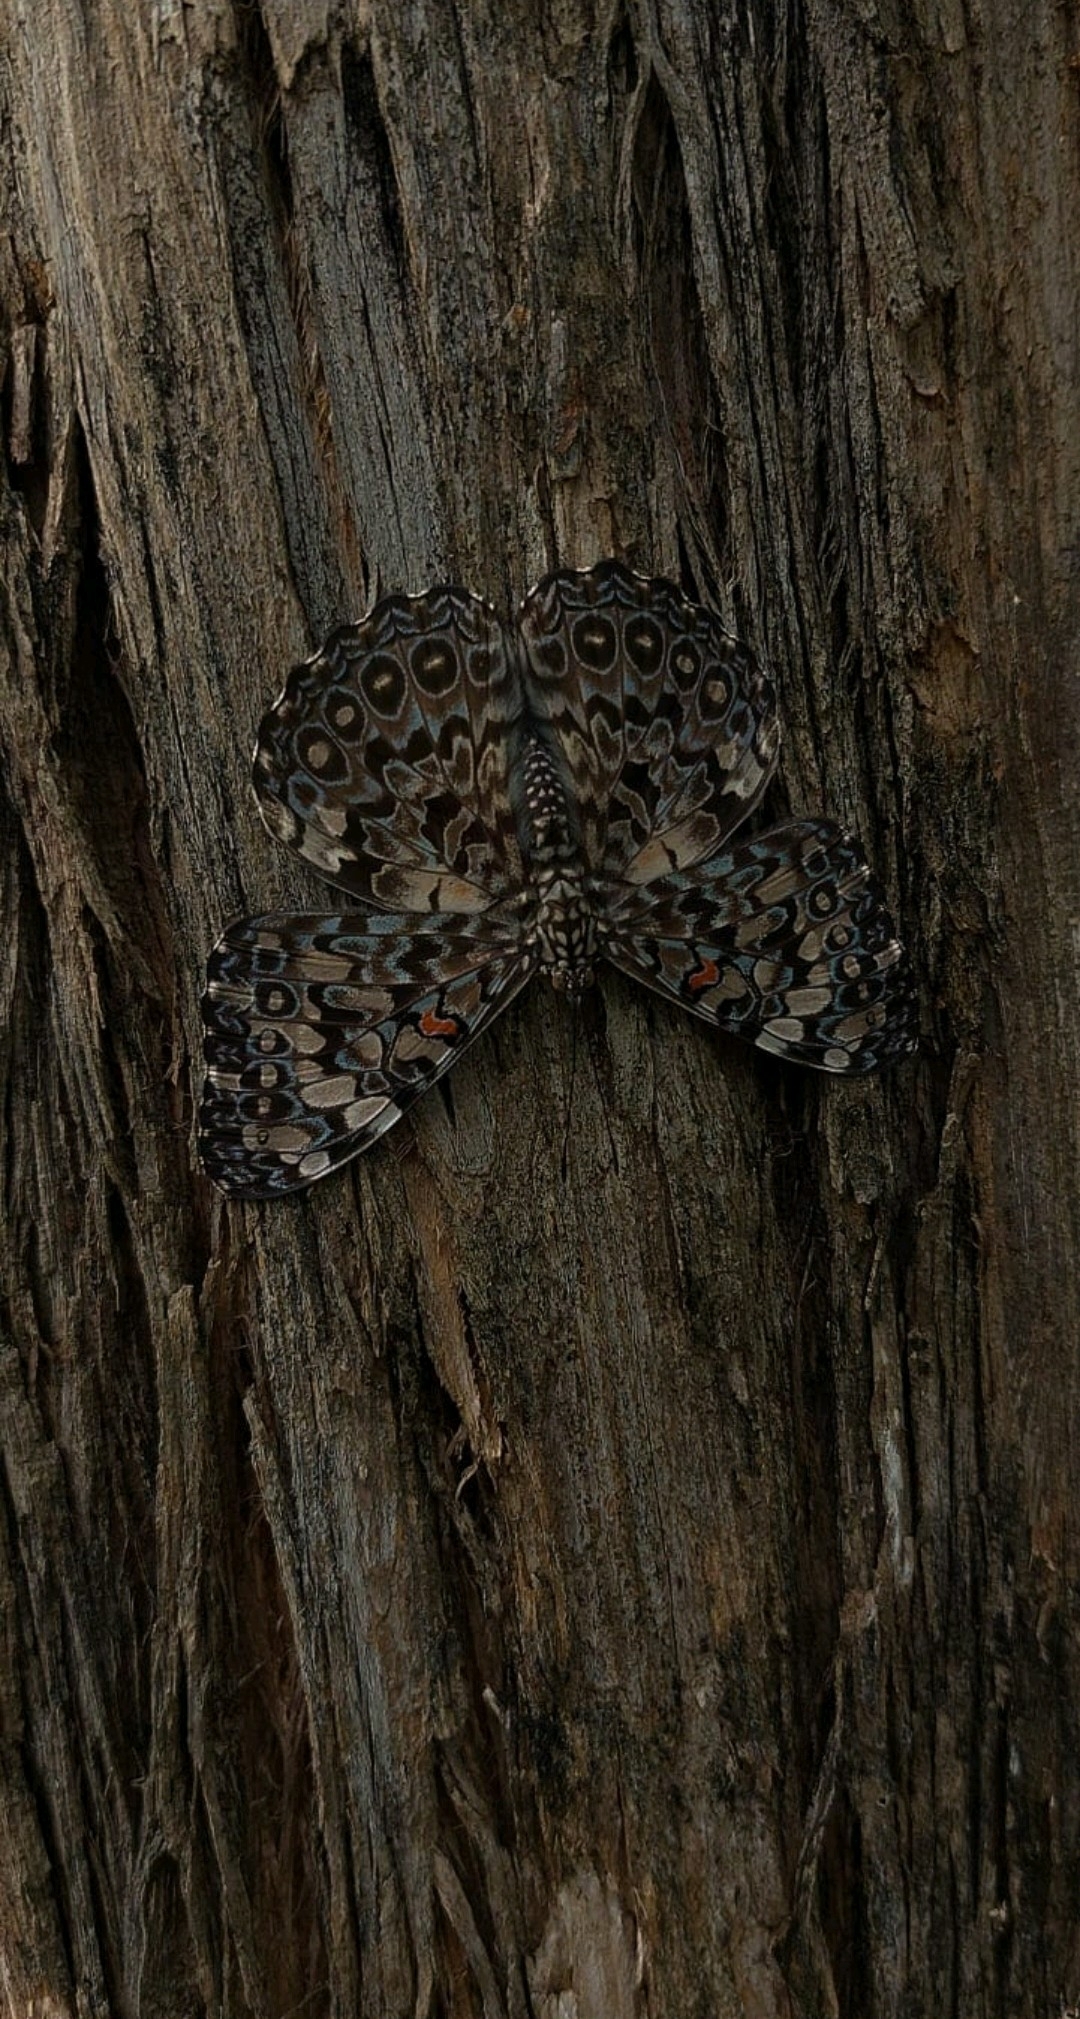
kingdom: Animalia
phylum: Arthropoda
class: Insecta
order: Lepidoptera
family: Nymphalidae
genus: Hamadryas
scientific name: Hamadryas
